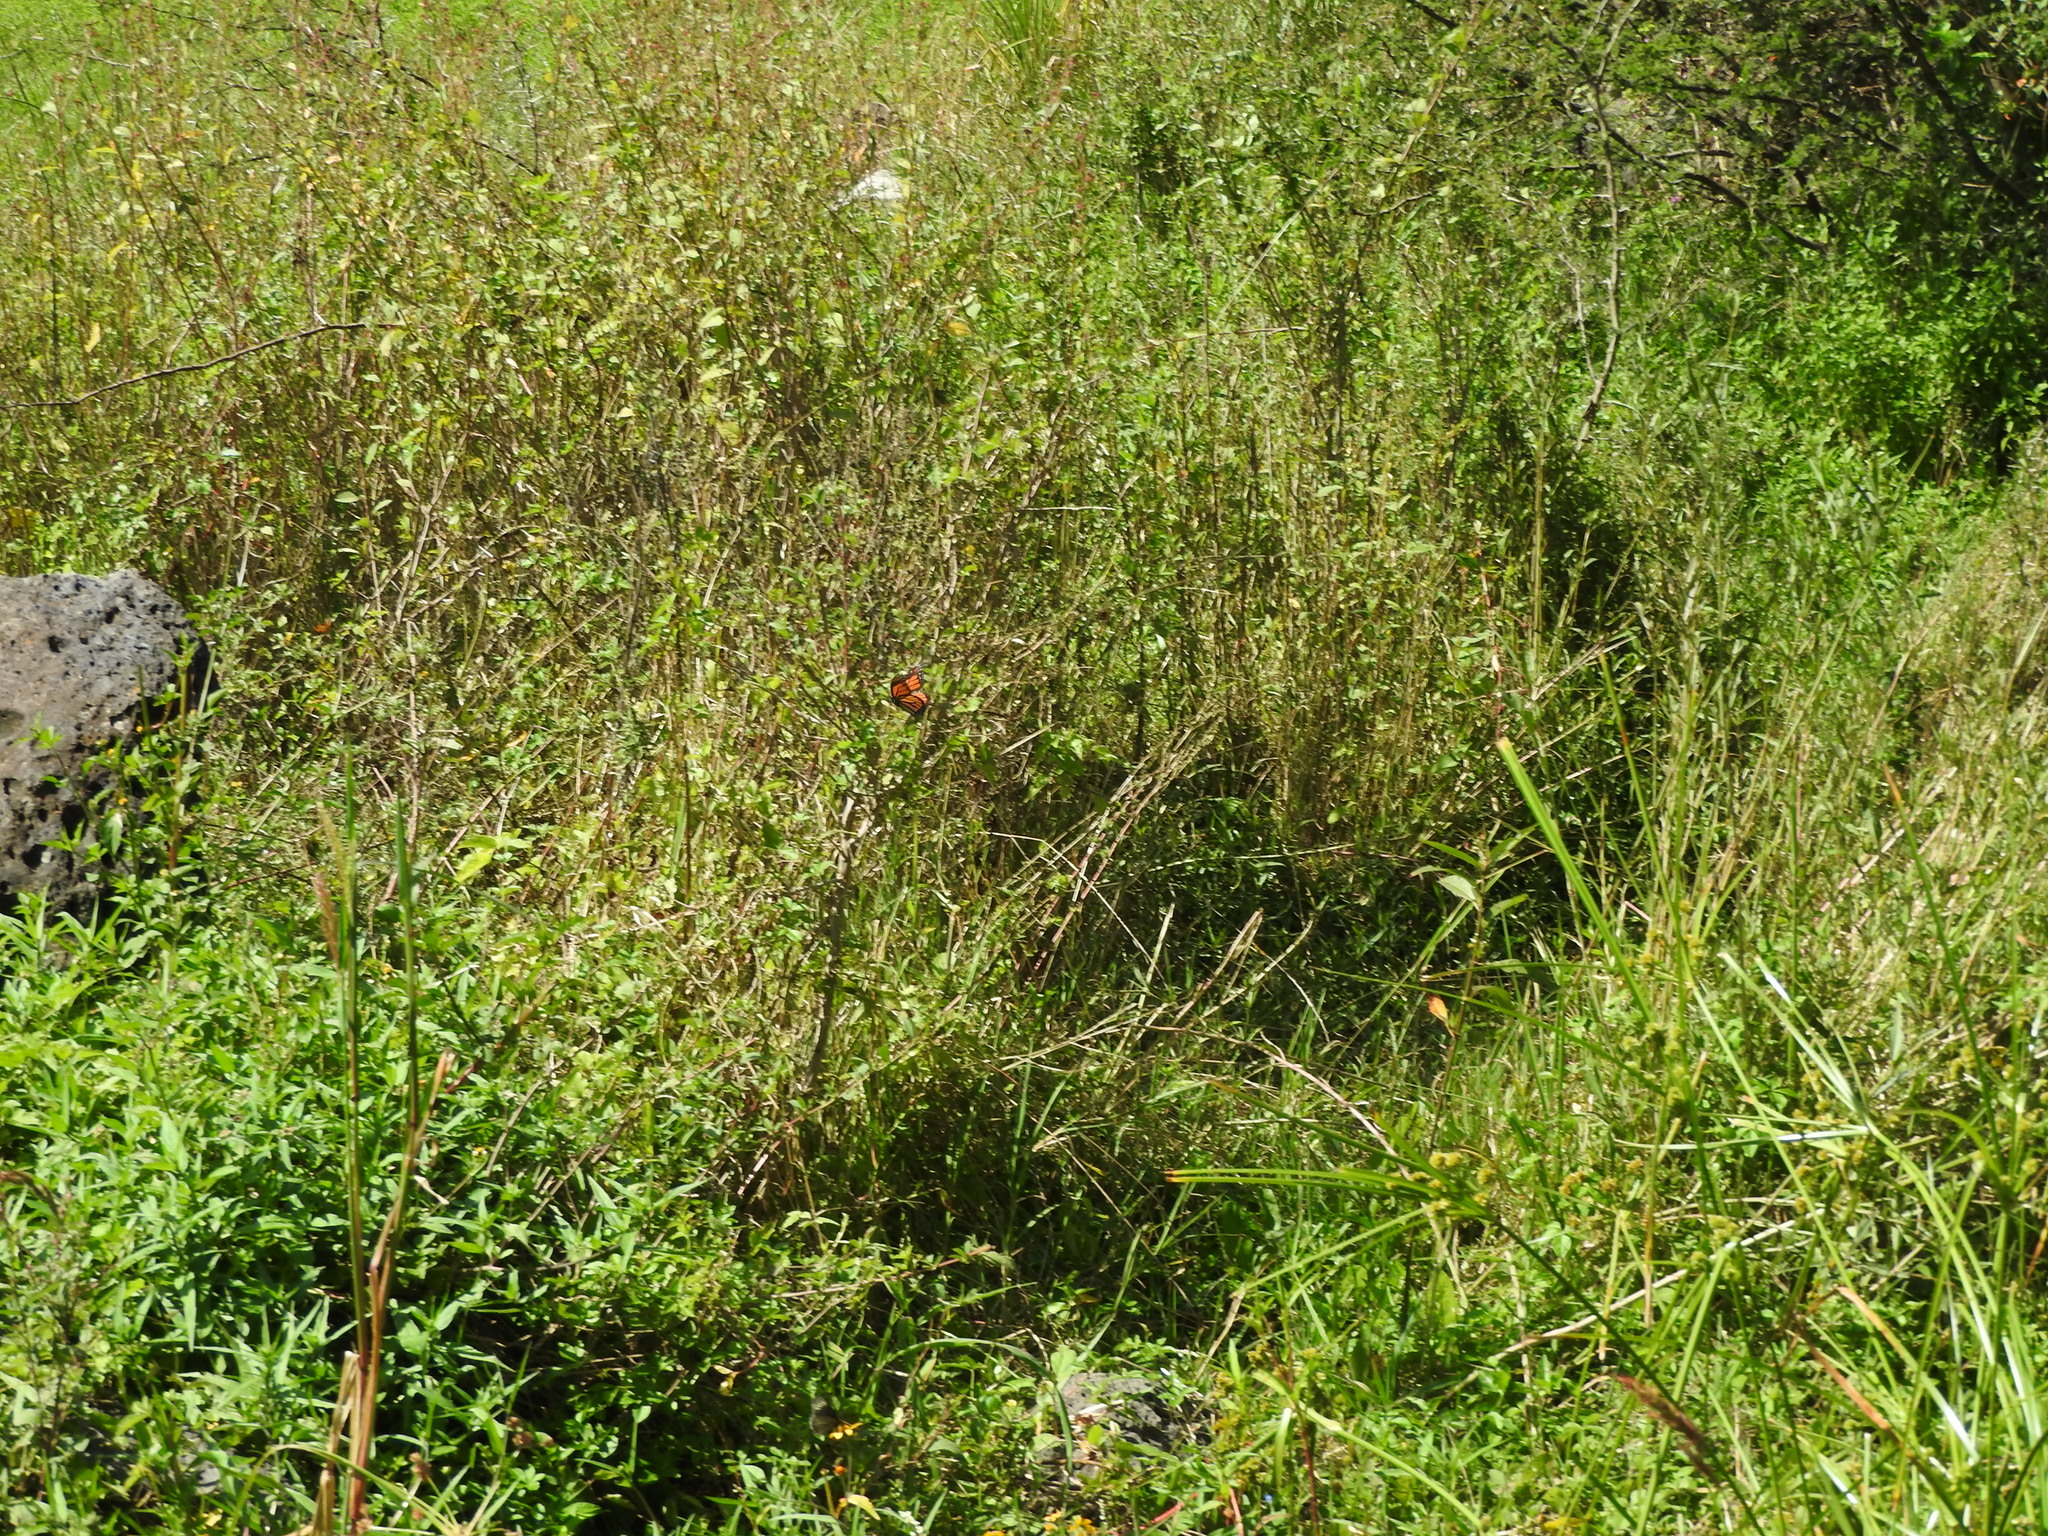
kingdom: Animalia
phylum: Arthropoda
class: Insecta
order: Lepidoptera
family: Nymphalidae
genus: Danaus
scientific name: Danaus plexippus
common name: Monarch
